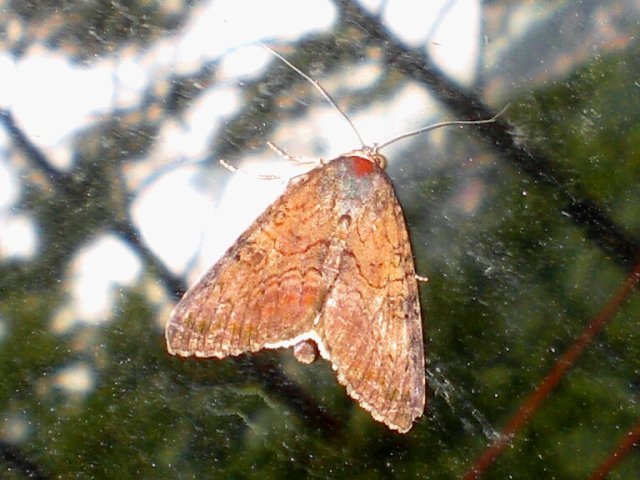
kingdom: Animalia
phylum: Arthropoda
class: Insecta
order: Lepidoptera
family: Noctuidae
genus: Amyna
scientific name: Amyna punctum
